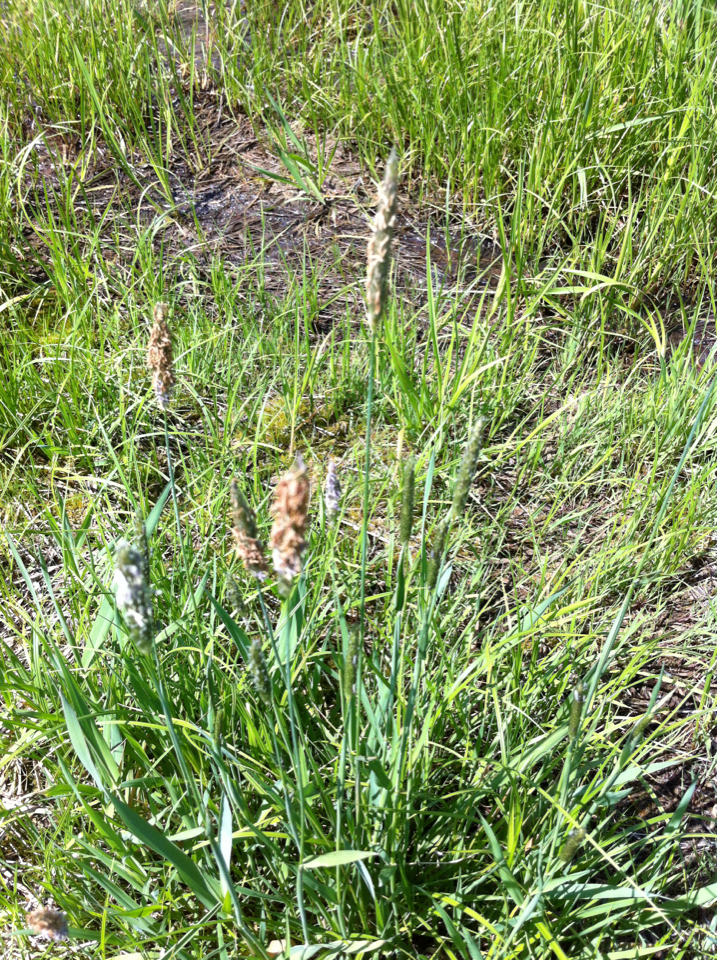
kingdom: Plantae
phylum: Tracheophyta
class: Liliopsida
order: Poales
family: Poaceae
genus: Alopecurus
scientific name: Alopecurus pratensis
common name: Meadow foxtail
